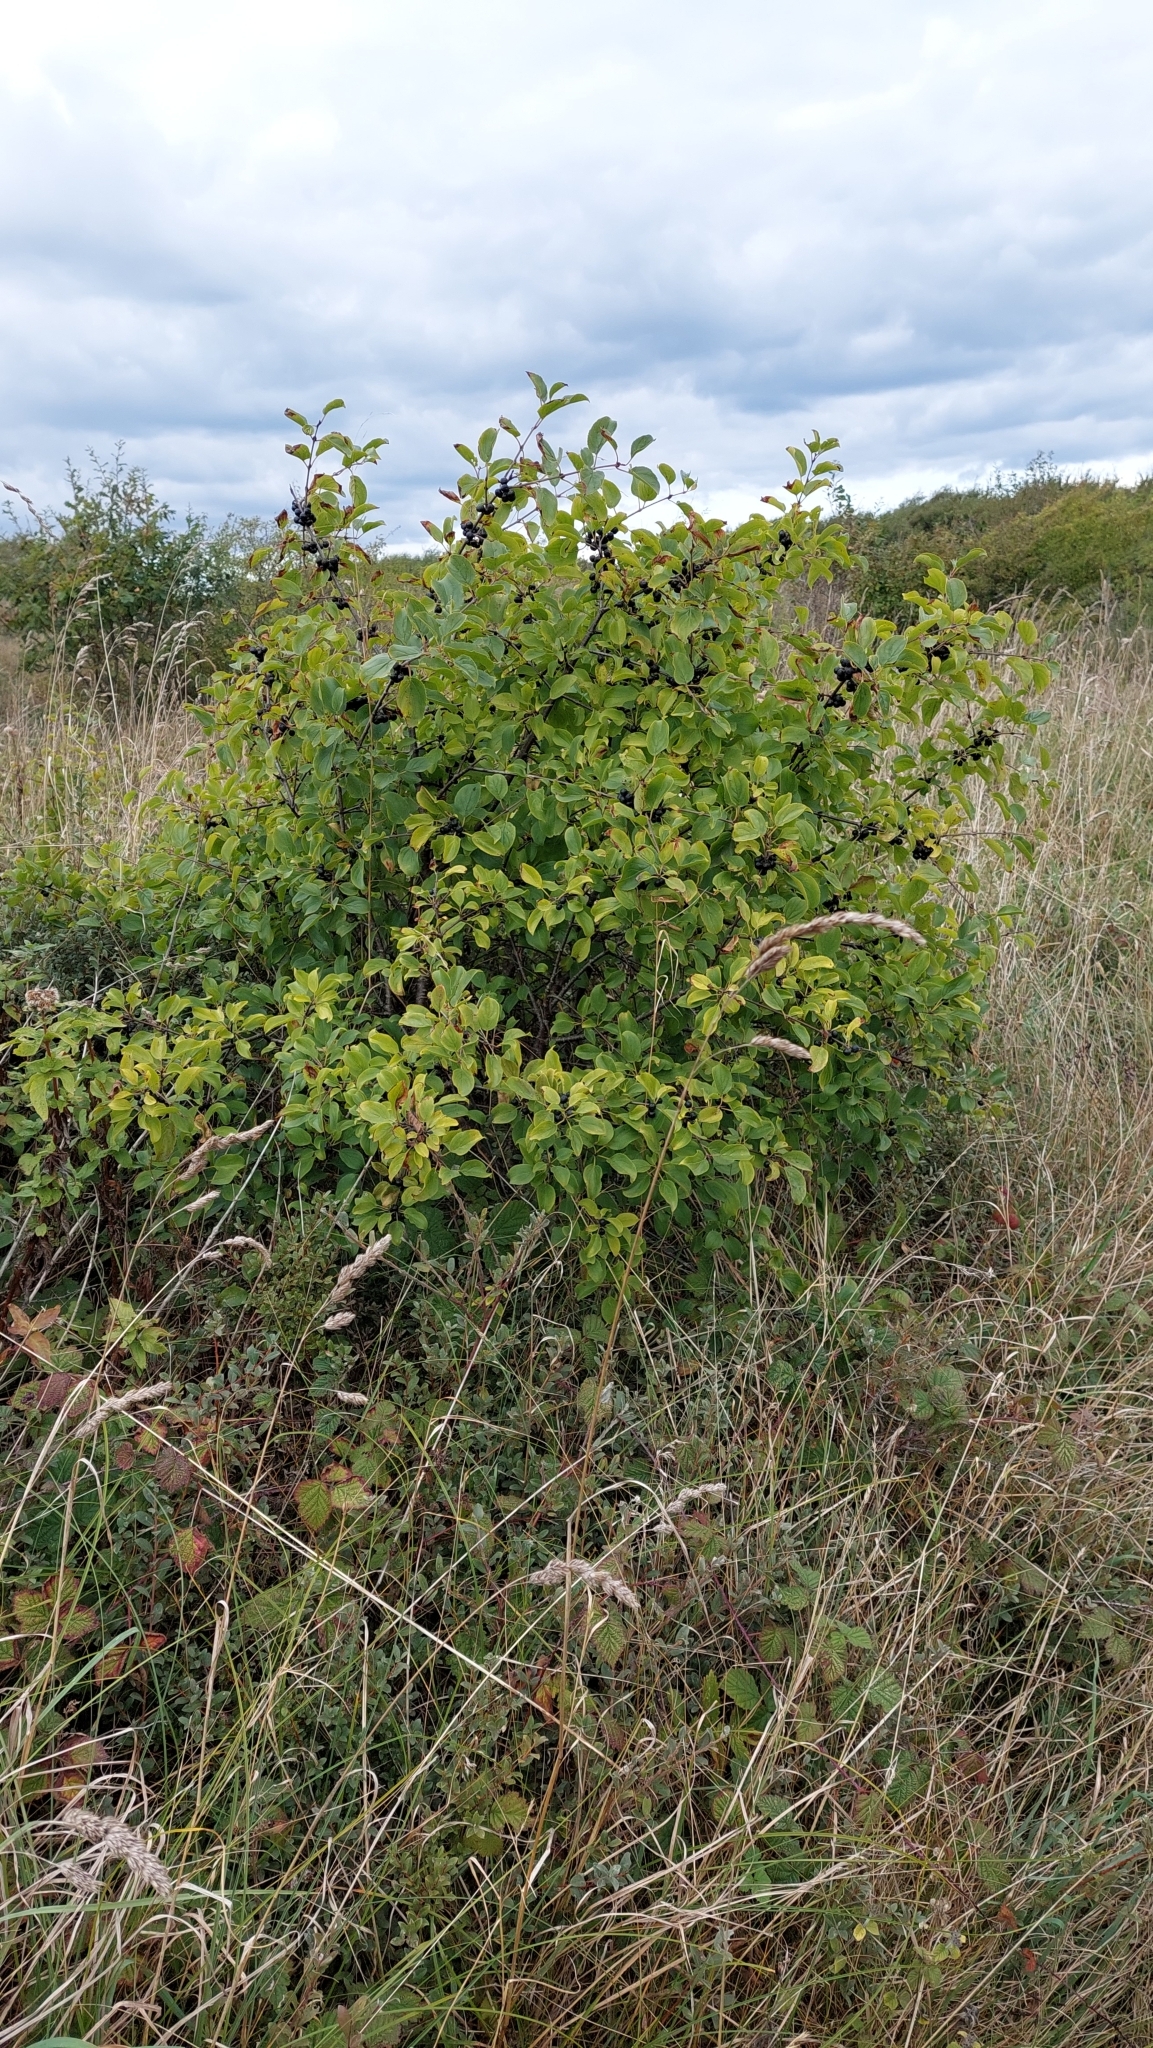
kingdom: Plantae
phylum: Tracheophyta
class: Magnoliopsida
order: Rosales
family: Rhamnaceae
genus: Rhamnus
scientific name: Rhamnus cathartica
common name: Common buckthorn
